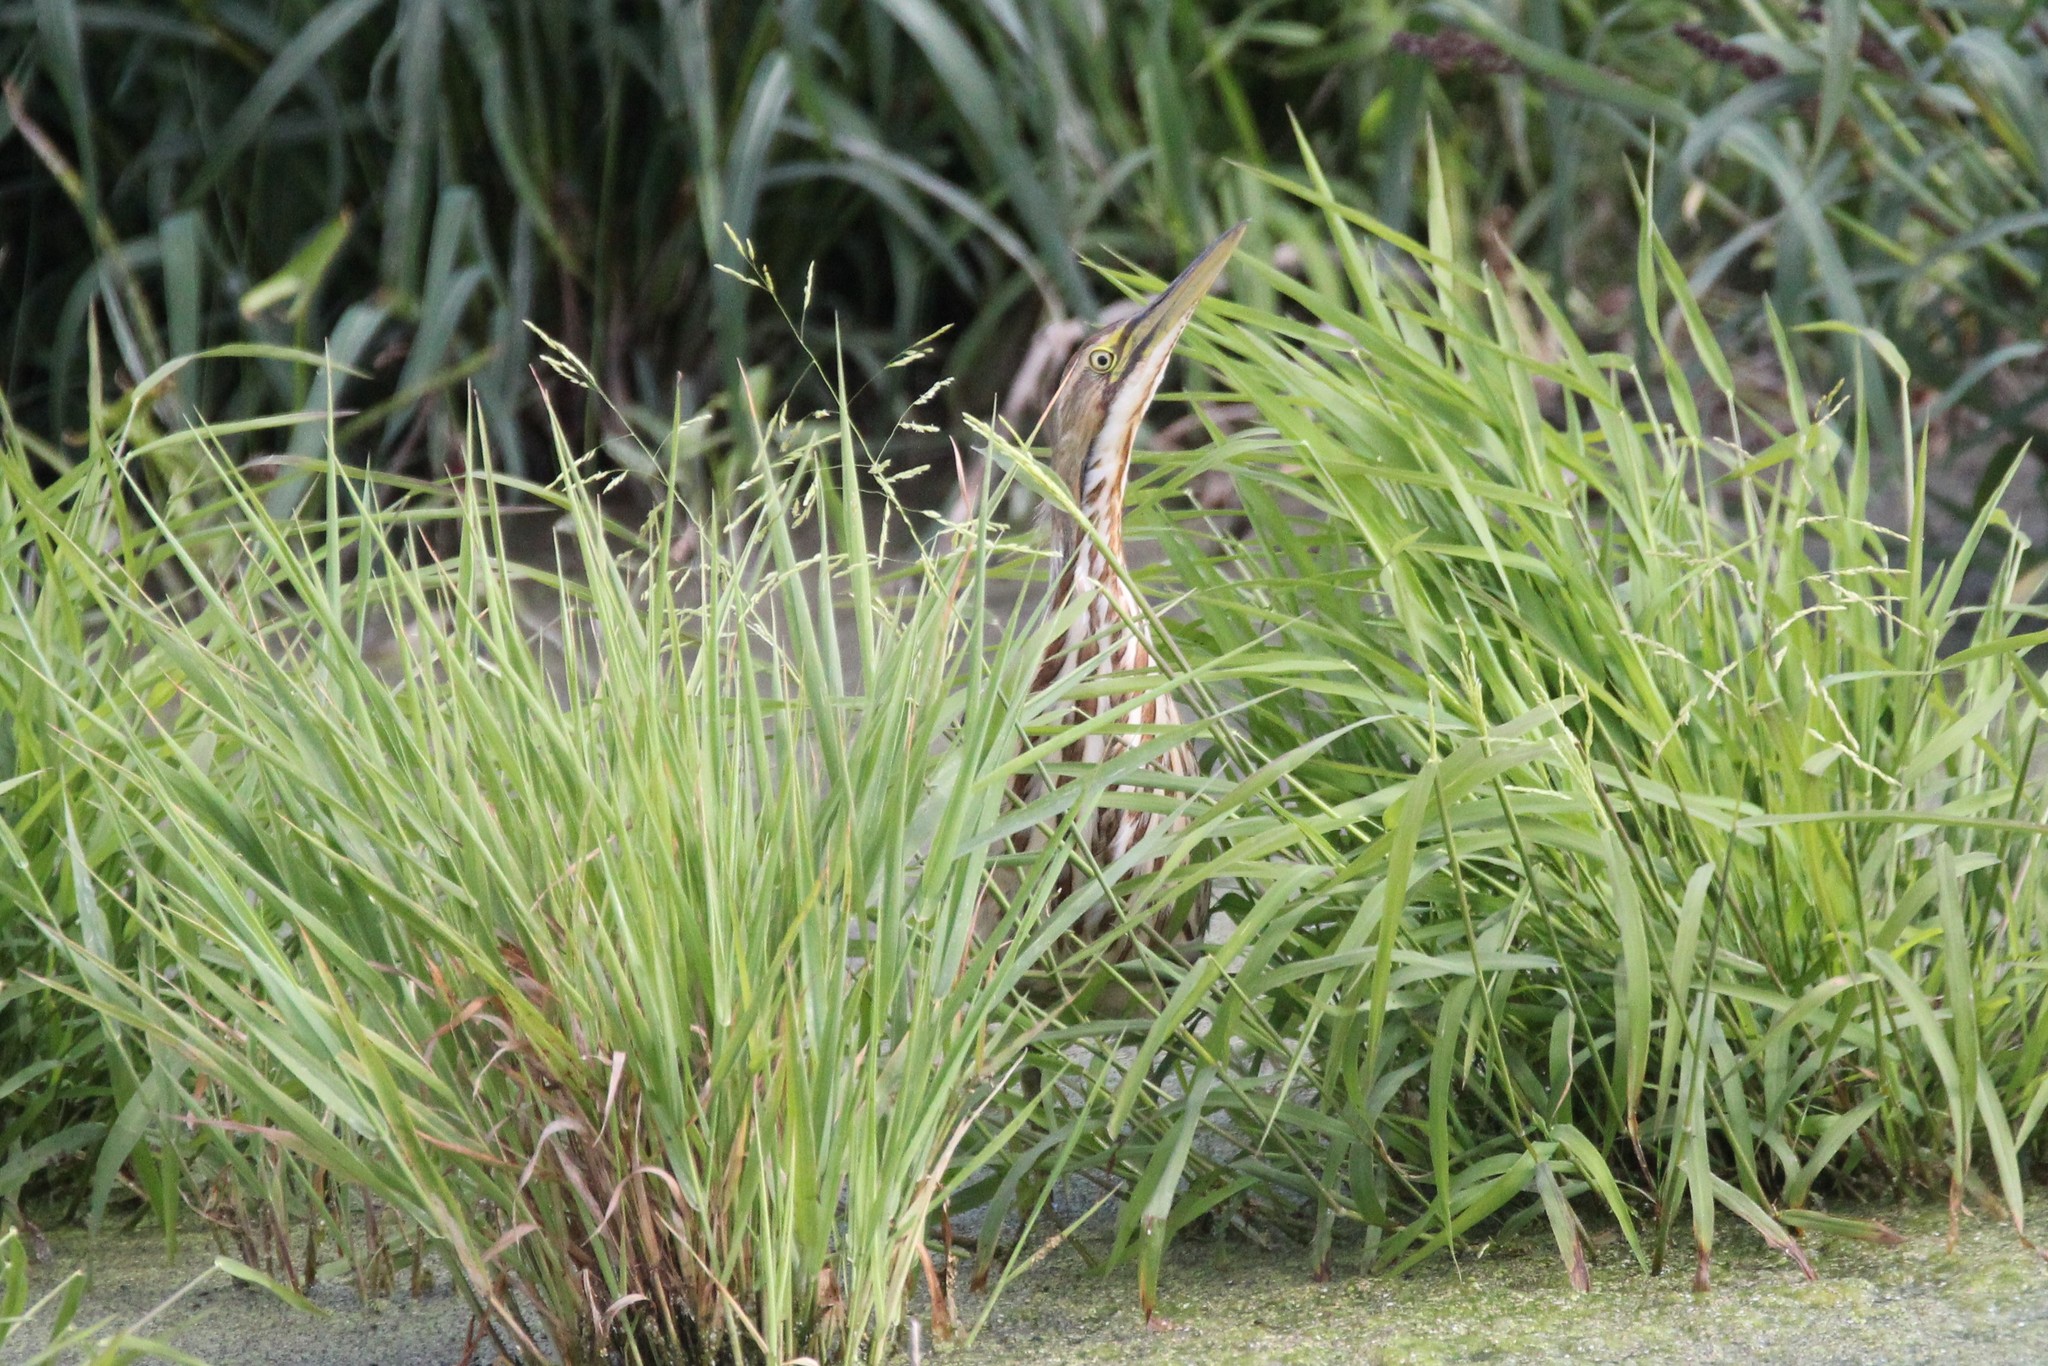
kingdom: Animalia
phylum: Chordata
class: Aves
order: Pelecaniformes
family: Ardeidae
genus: Botaurus
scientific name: Botaurus lentiginosus
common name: American bittern
